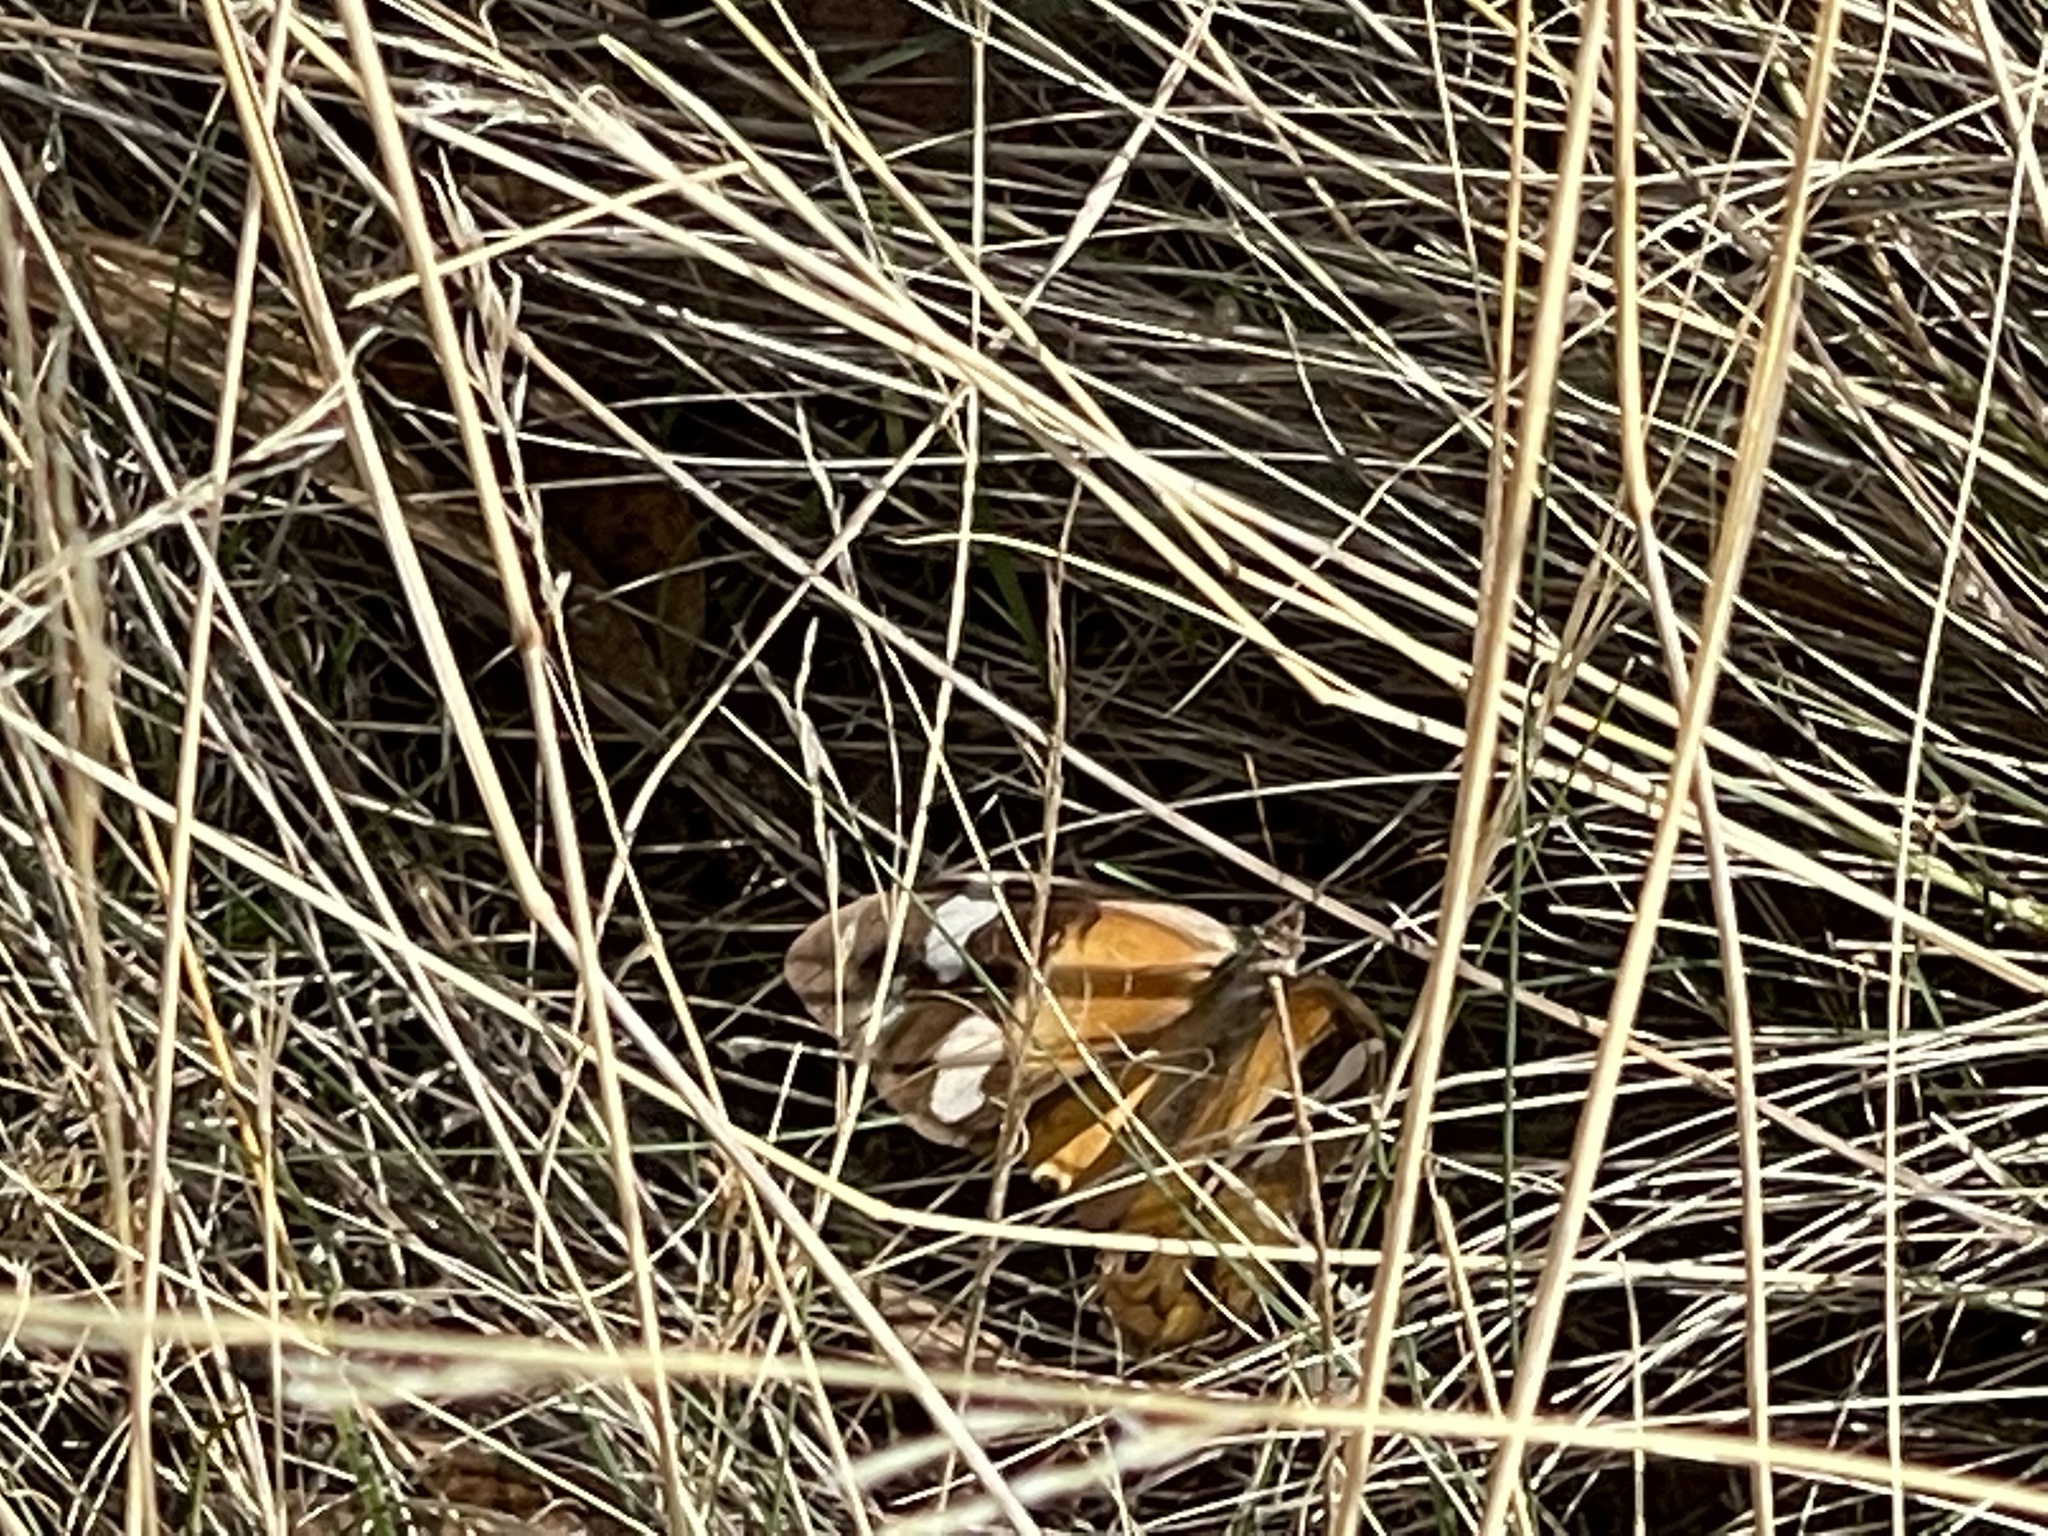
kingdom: Animalia
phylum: Arthropoda
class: Insecta
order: Lepidoptera
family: Nymphalidae
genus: Heteronympha
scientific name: Heteronympha merope
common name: Common brown
